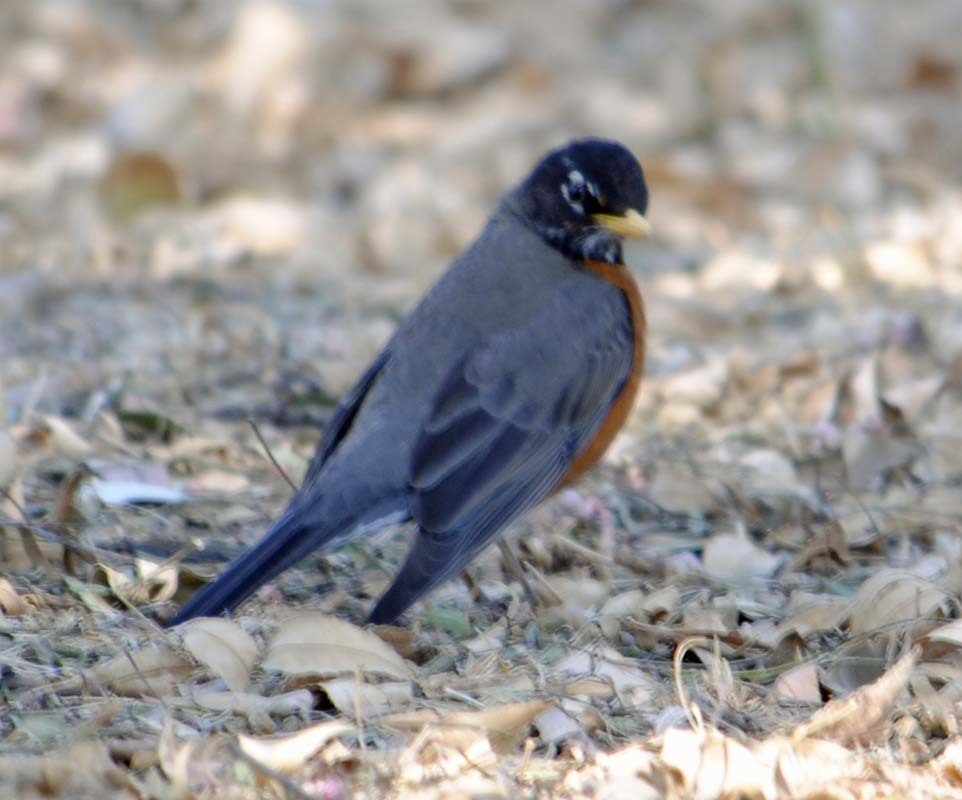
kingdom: Animalia
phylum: Chordata
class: Aves
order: Passeriformes
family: Turdidae
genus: Turdus
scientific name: Turdus migratorius
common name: American robin
